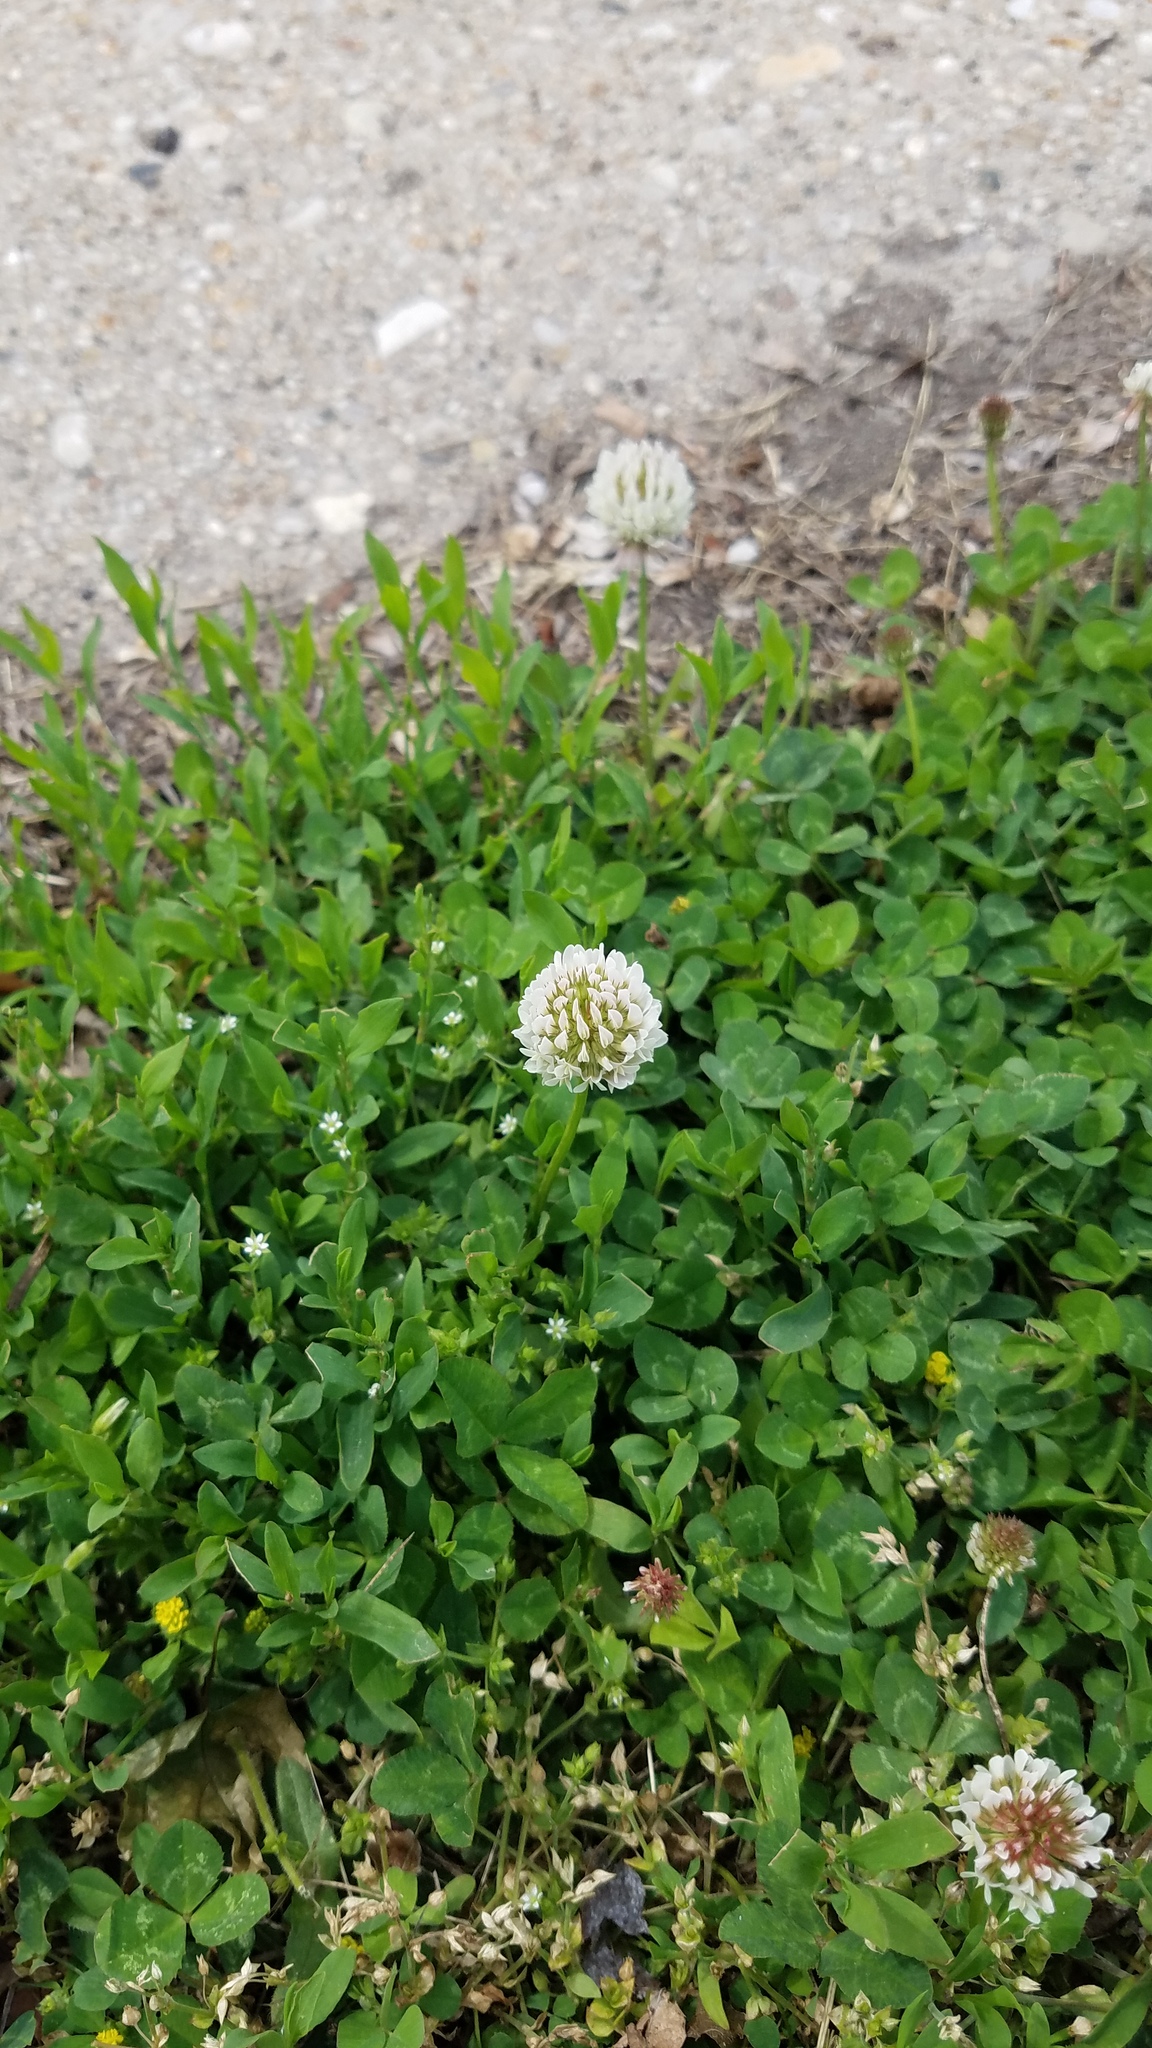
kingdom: Plantae
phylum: Tracheophyta
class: Magnoliopsida
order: Fabales
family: Fabaceae
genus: Trifolium
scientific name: Trifolium repens
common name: White clover
